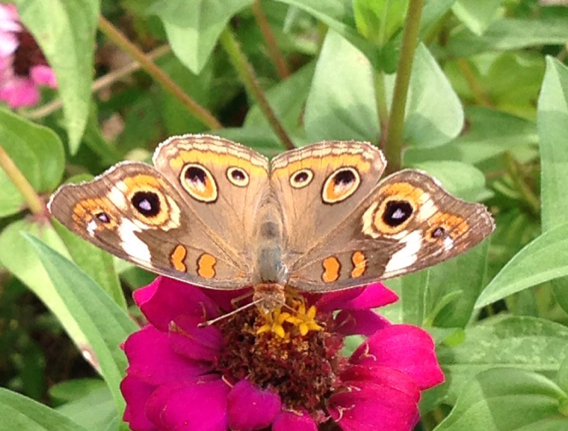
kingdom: Animalia
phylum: Arthropoda
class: Insecta
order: Lepidoptera
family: Nymphalidae
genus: Junonia
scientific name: Junonia coenia
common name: Common buckeye
